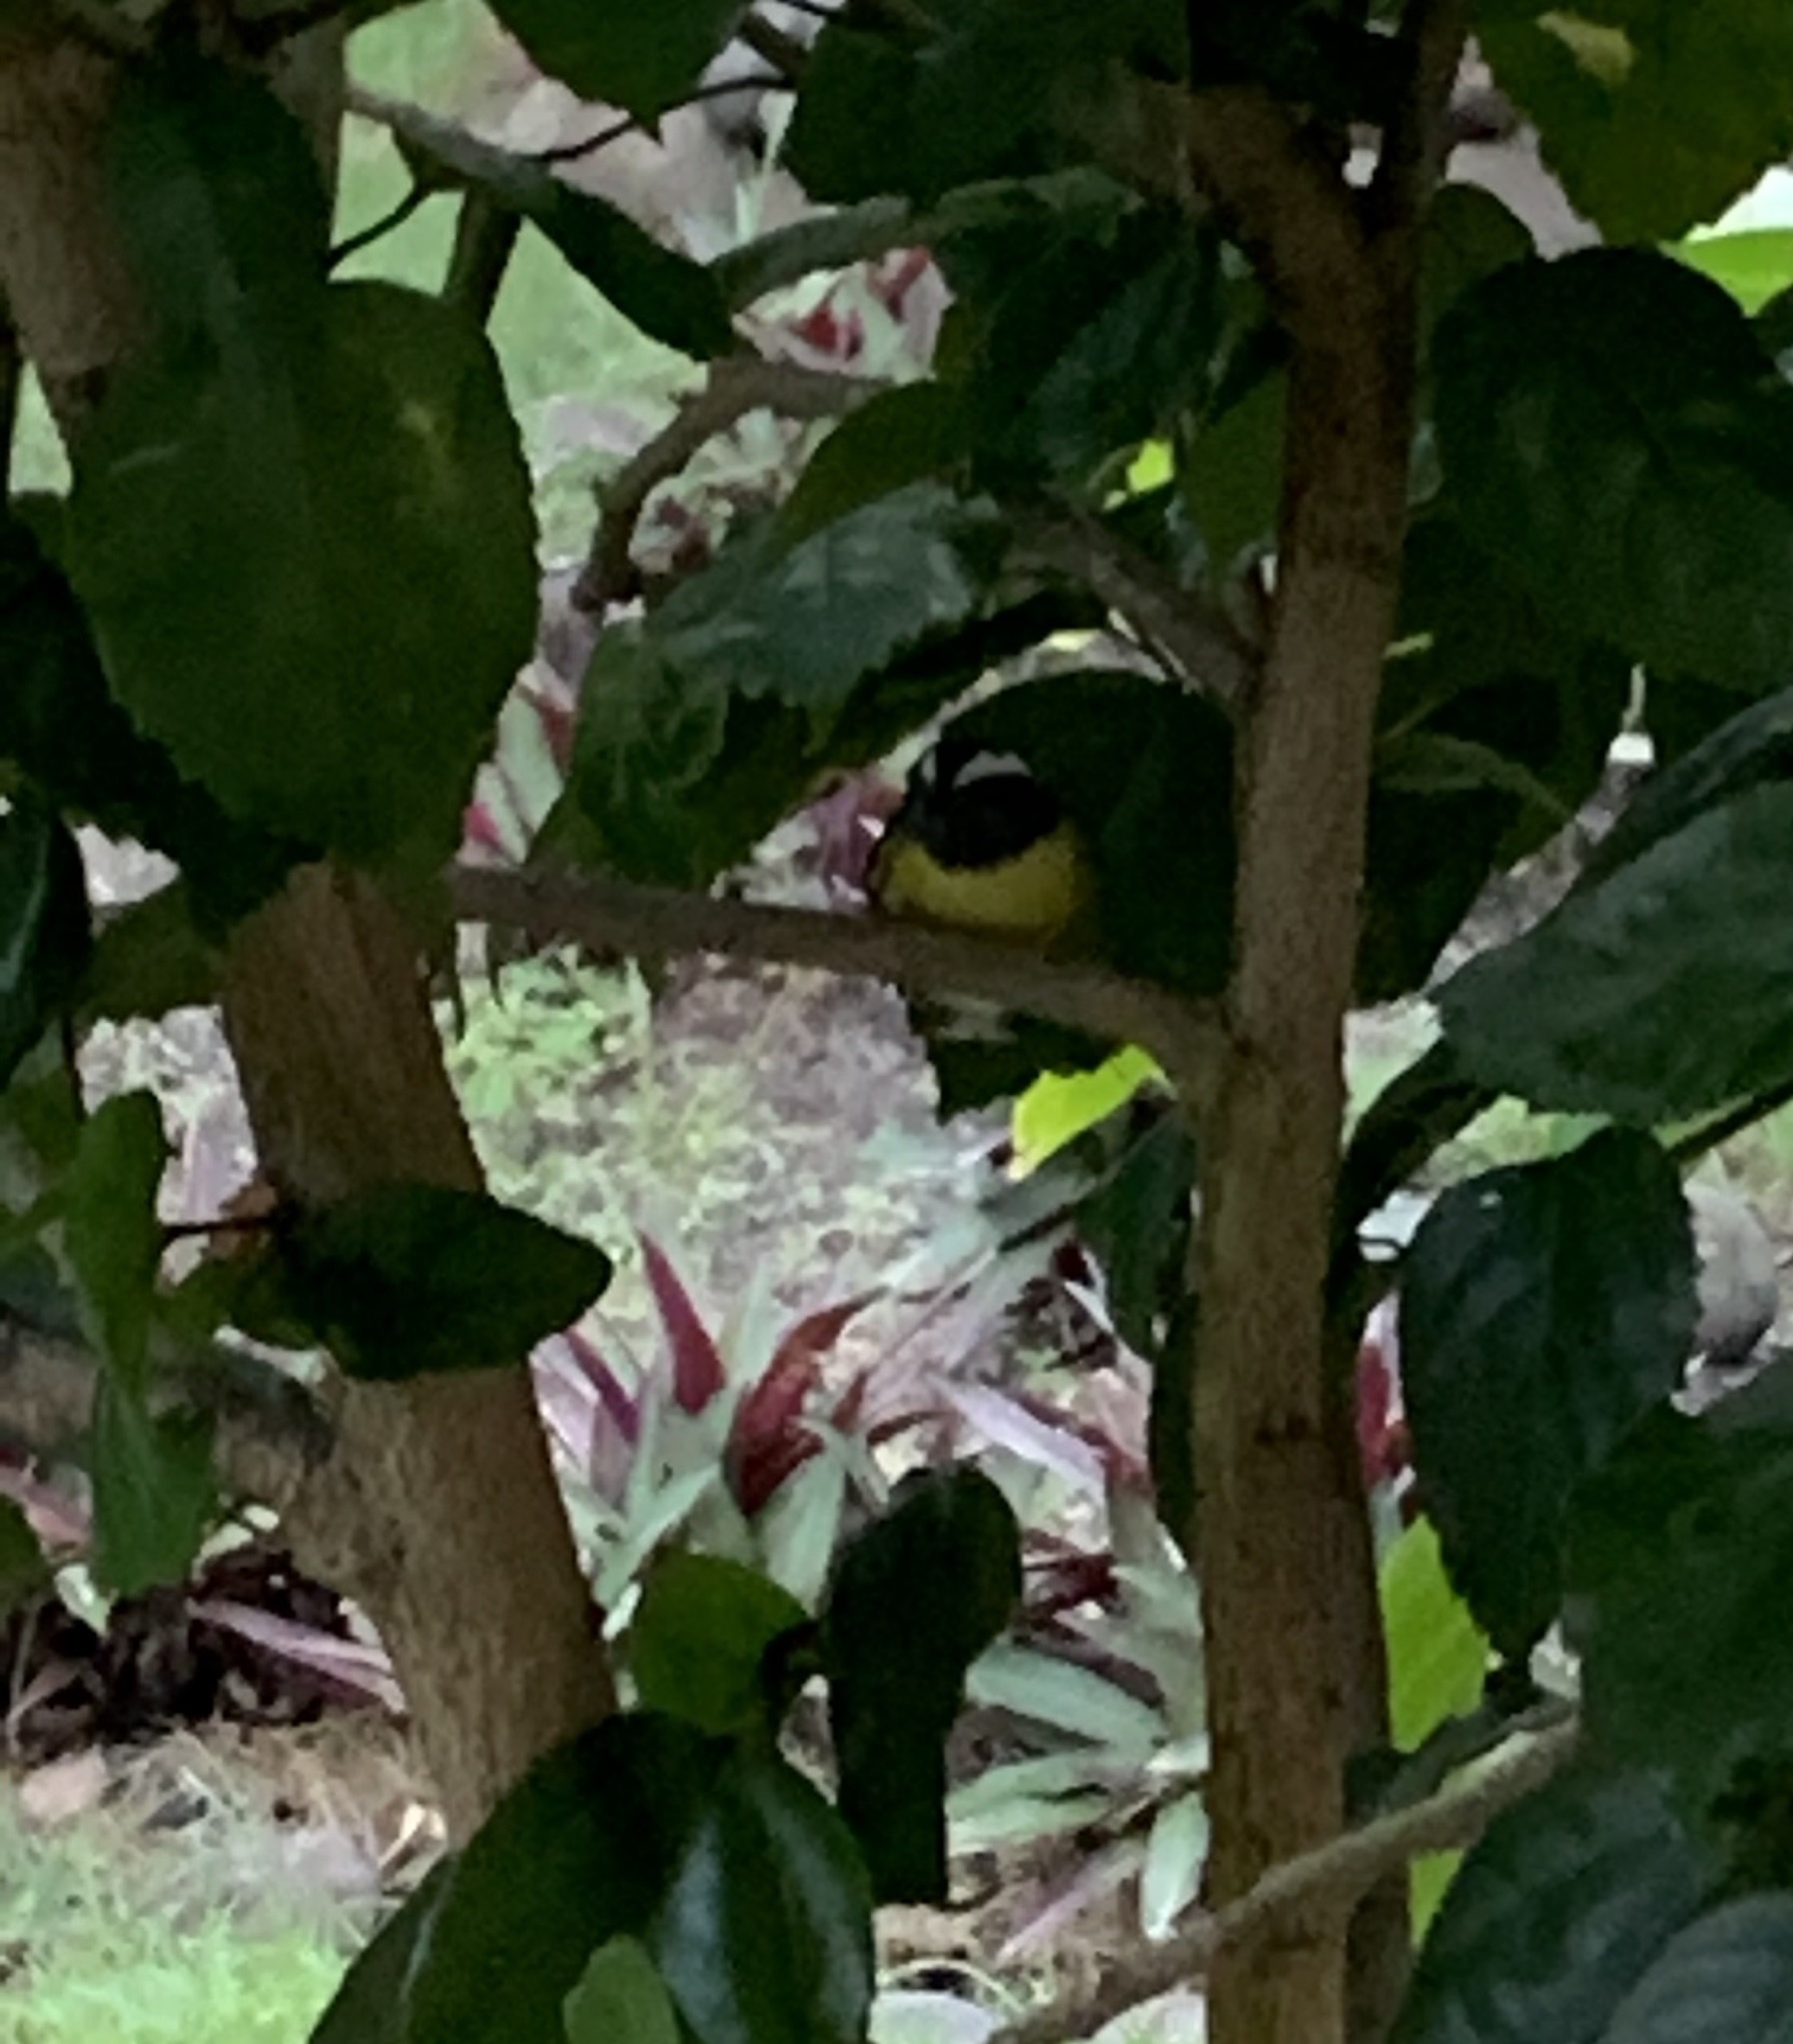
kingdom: Animalia
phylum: Chordata
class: Aves
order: Passeriformes
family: Thraupidae
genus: Coereba
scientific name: Coereba flaveola
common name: Bananaquit
